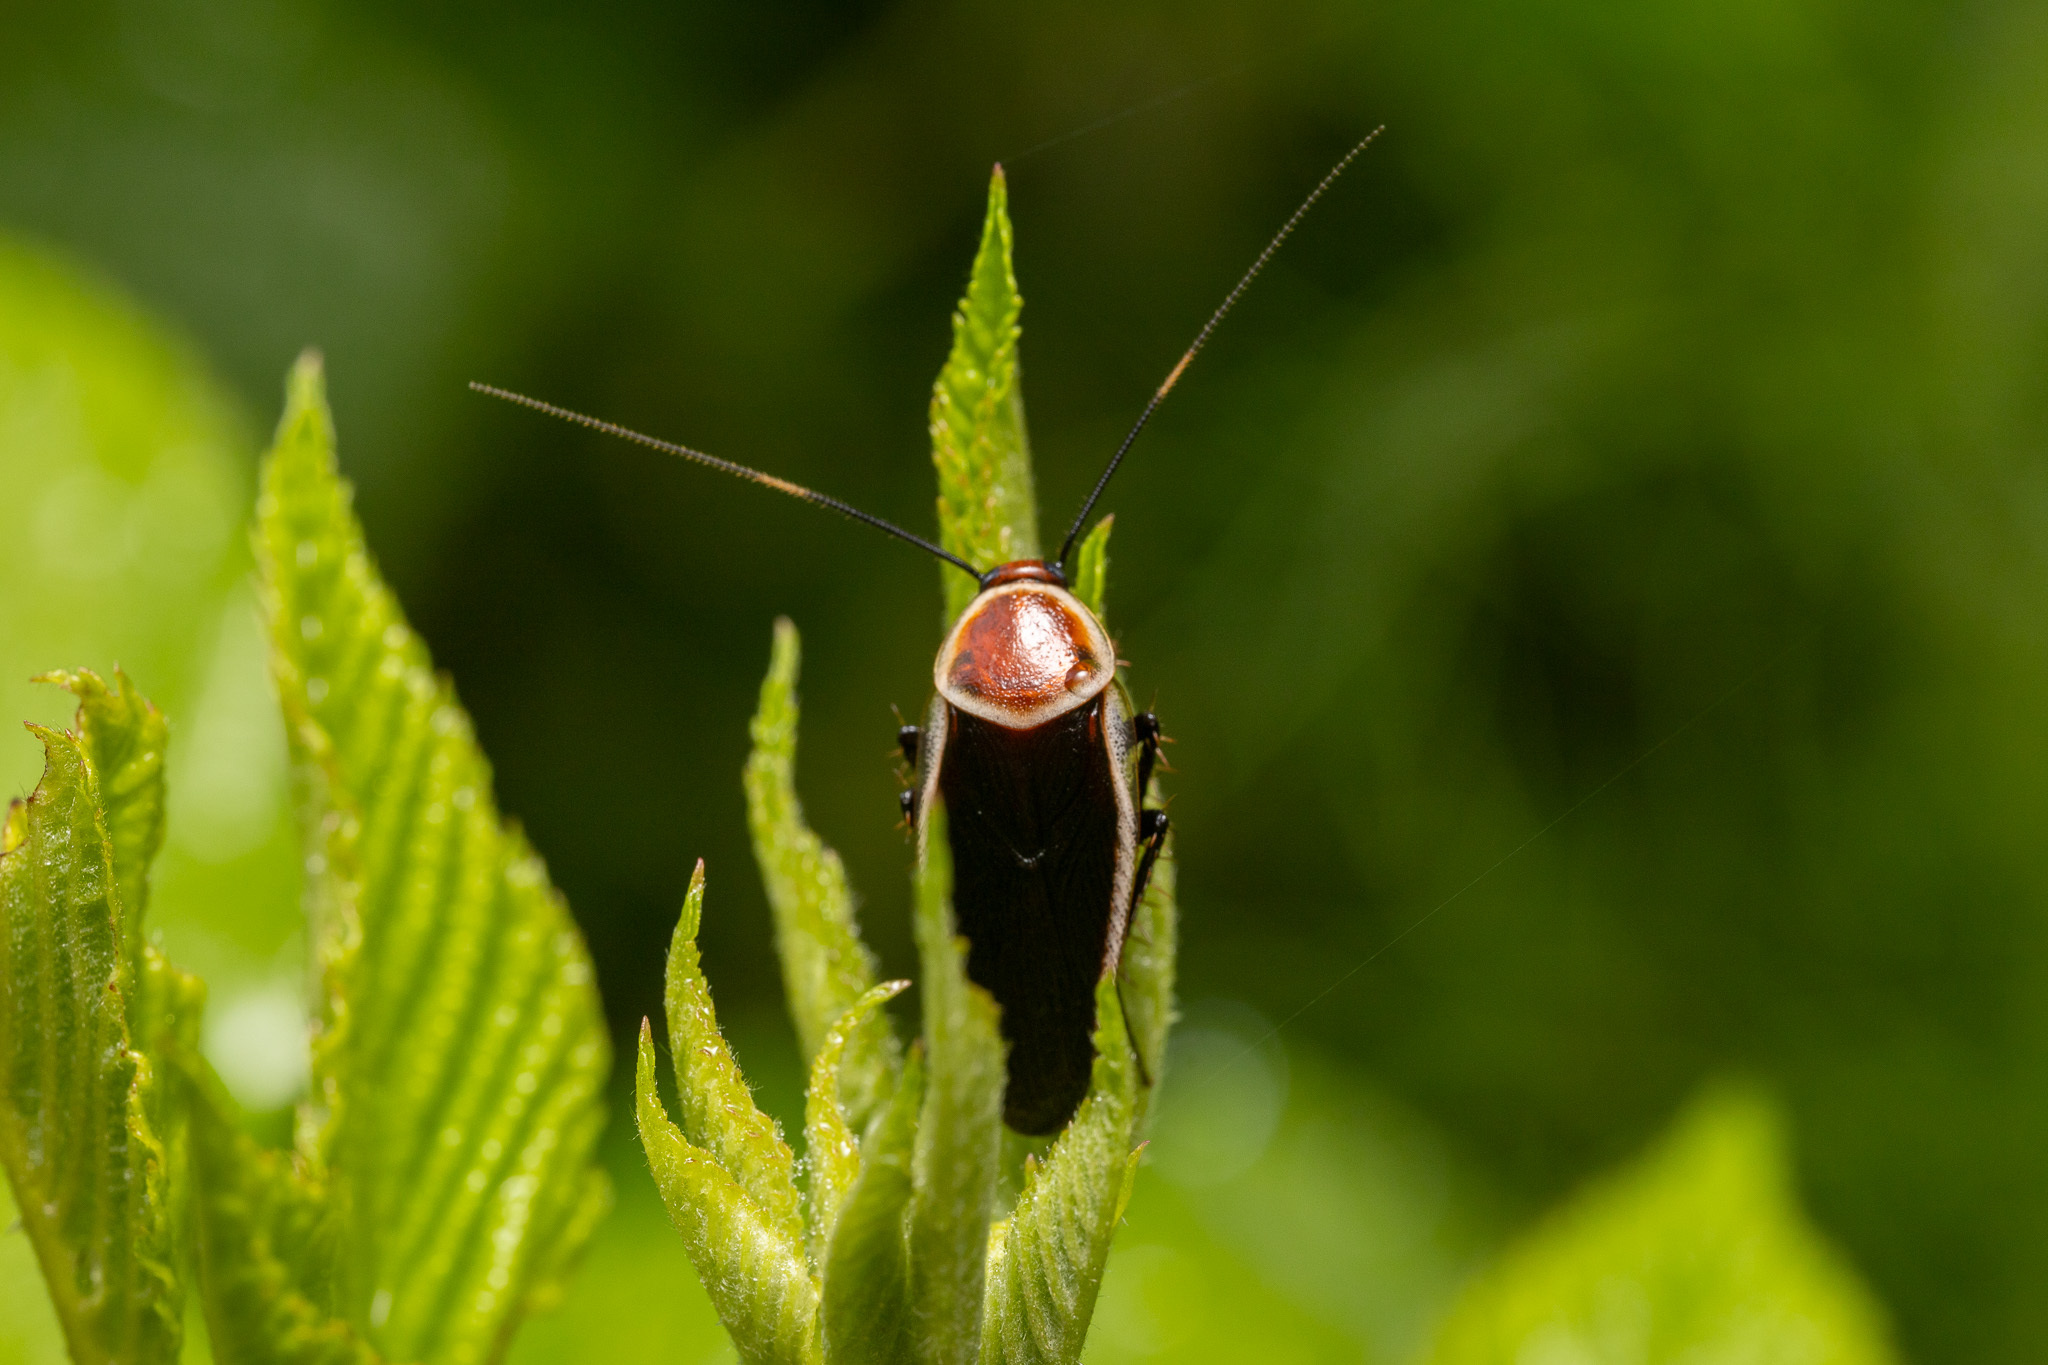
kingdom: Animalia
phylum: Arthropoda
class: Insecta
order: Blattodea
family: Ectobiidae
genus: Pseudomops
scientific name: Pseudomops septentrionalis
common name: Pale-bordered field cockroach
